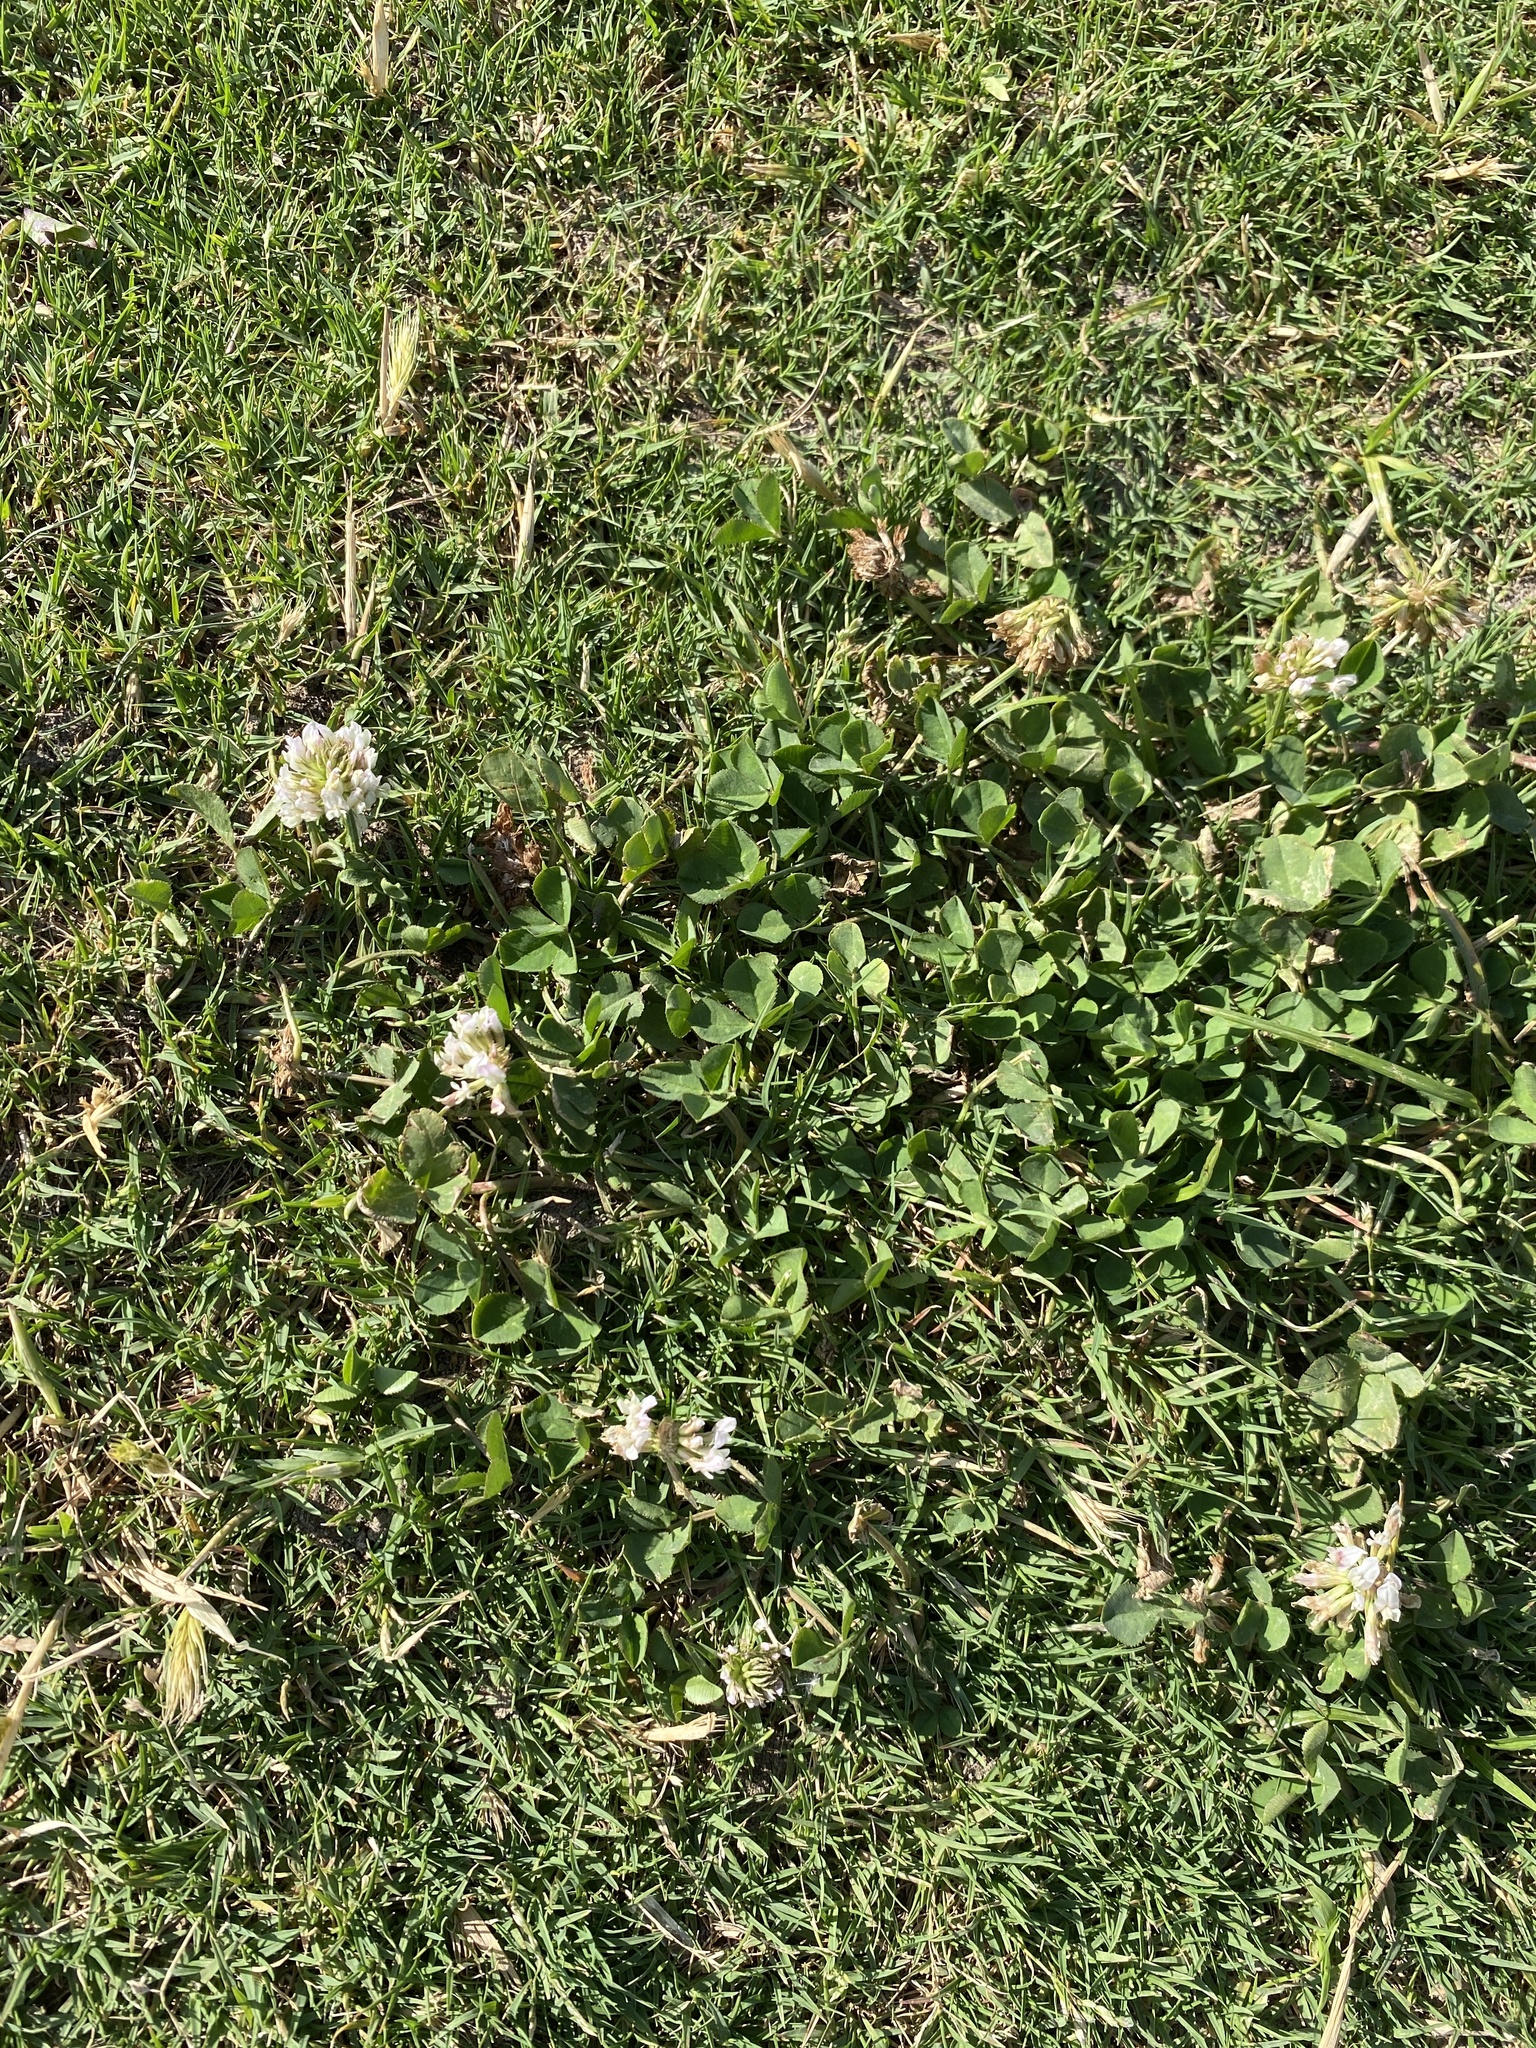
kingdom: Plantae
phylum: Tracheophyta
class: Magnoliopsida
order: Fabales
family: Fabaceae
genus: Trifolium
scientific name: Trifolium repens
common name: White clover
